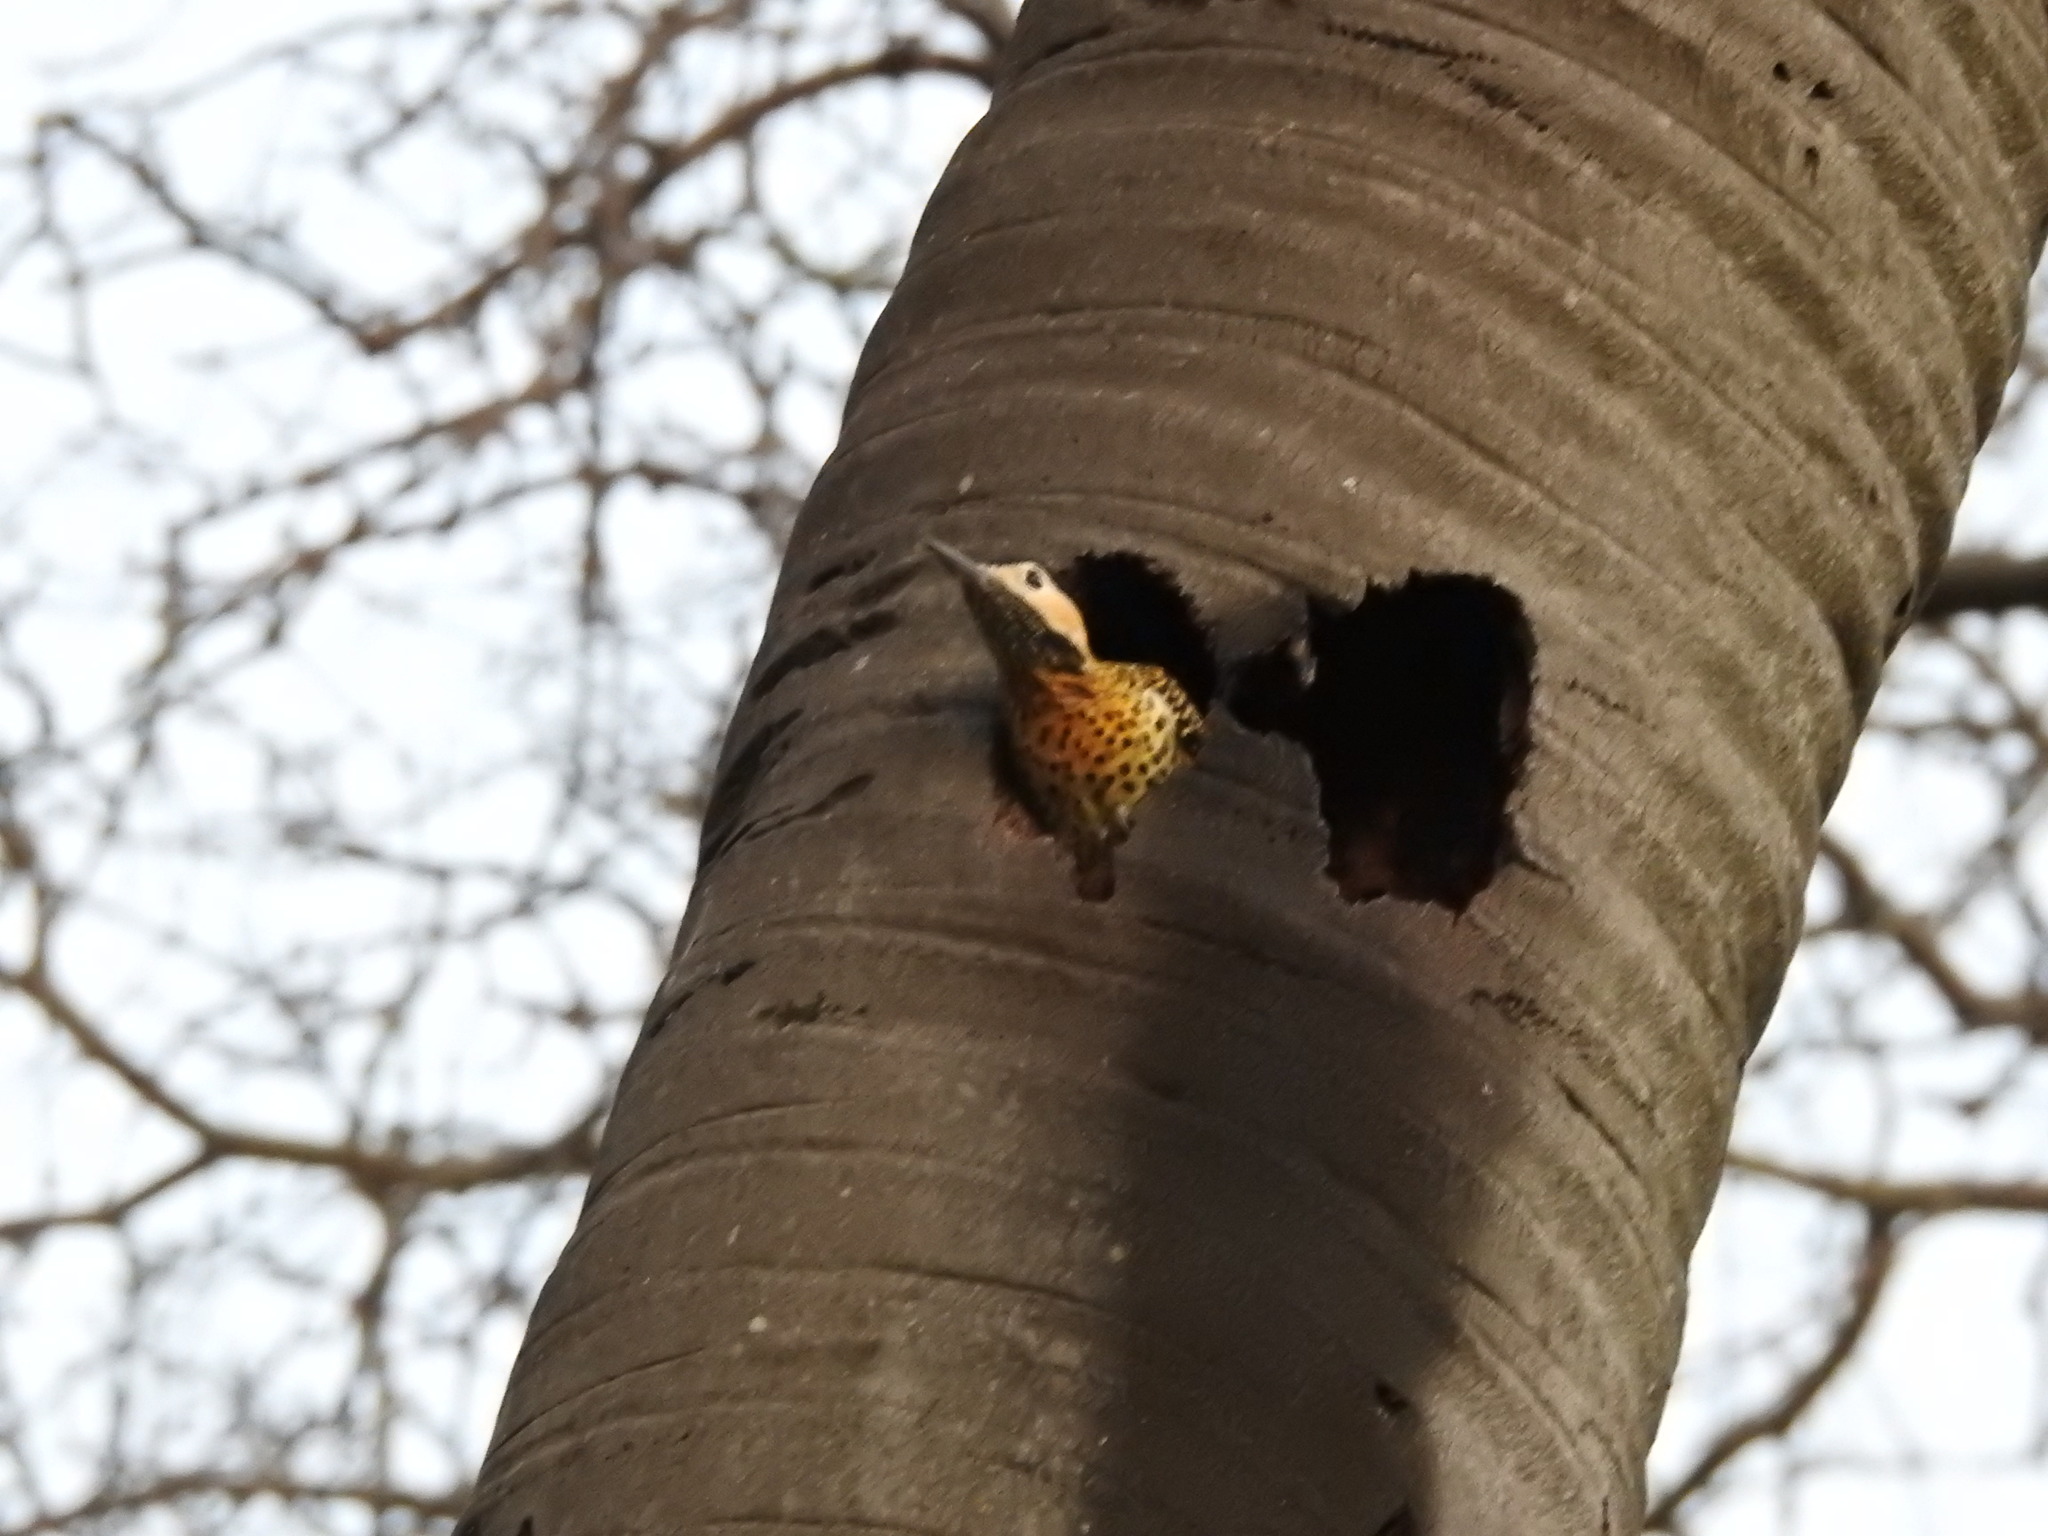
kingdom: Animalia
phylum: Chordata
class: Aves
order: Piciformes
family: Picidae
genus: Colaptes
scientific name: Colaptes melanochloros
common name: Green-barred woodpecker
